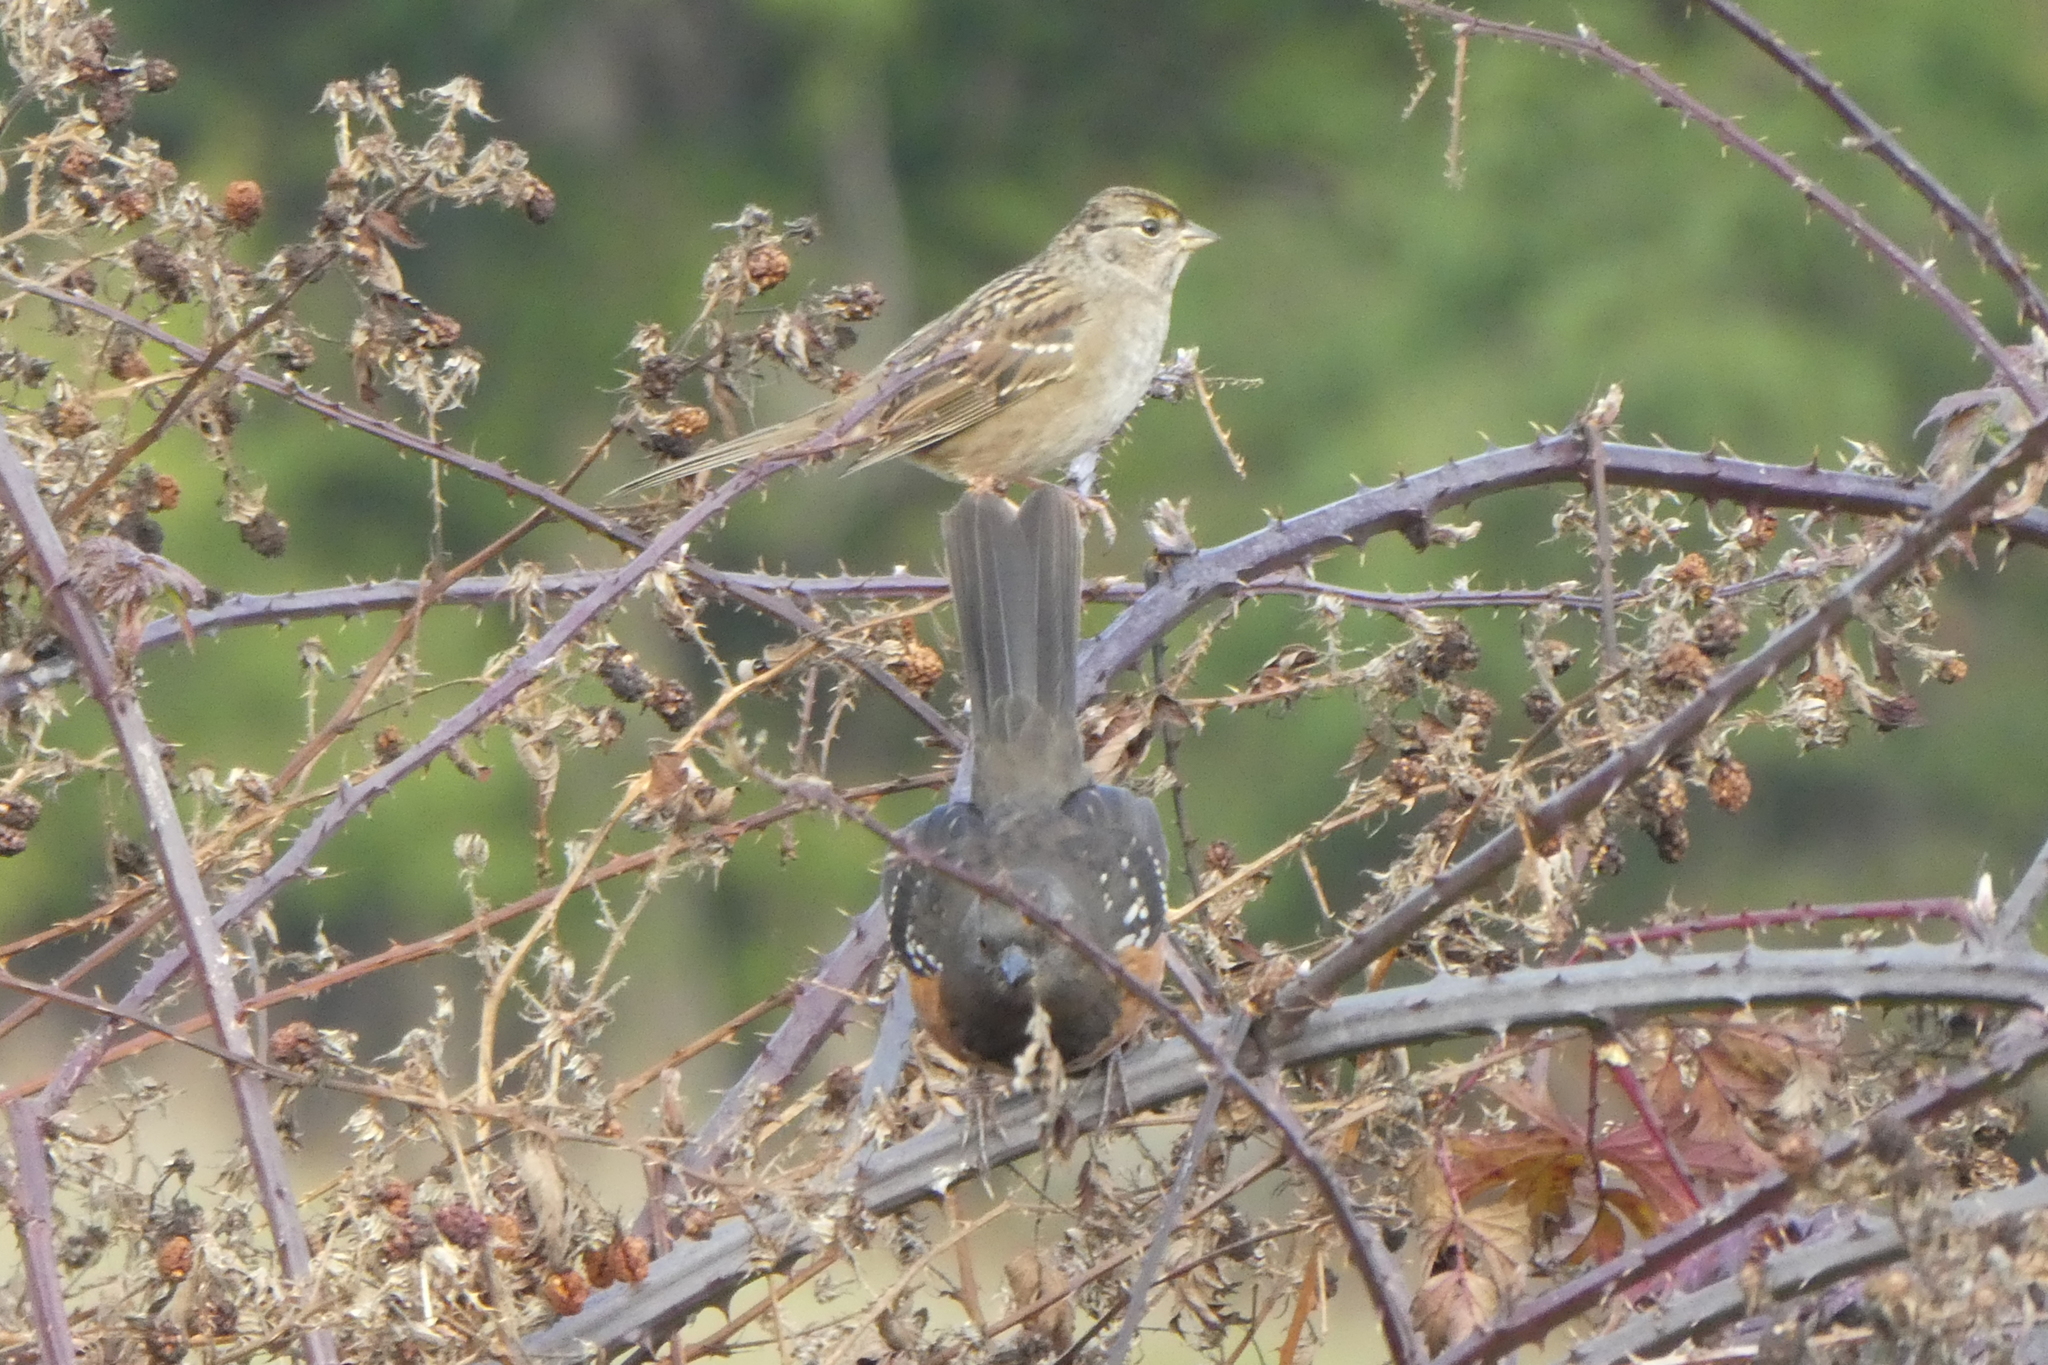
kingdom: Animalia
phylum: Chordata
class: Aves
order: Passeriformes
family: Passerellidae
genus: Pipilo
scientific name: Pipilo maculatus
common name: Spotted towhee
